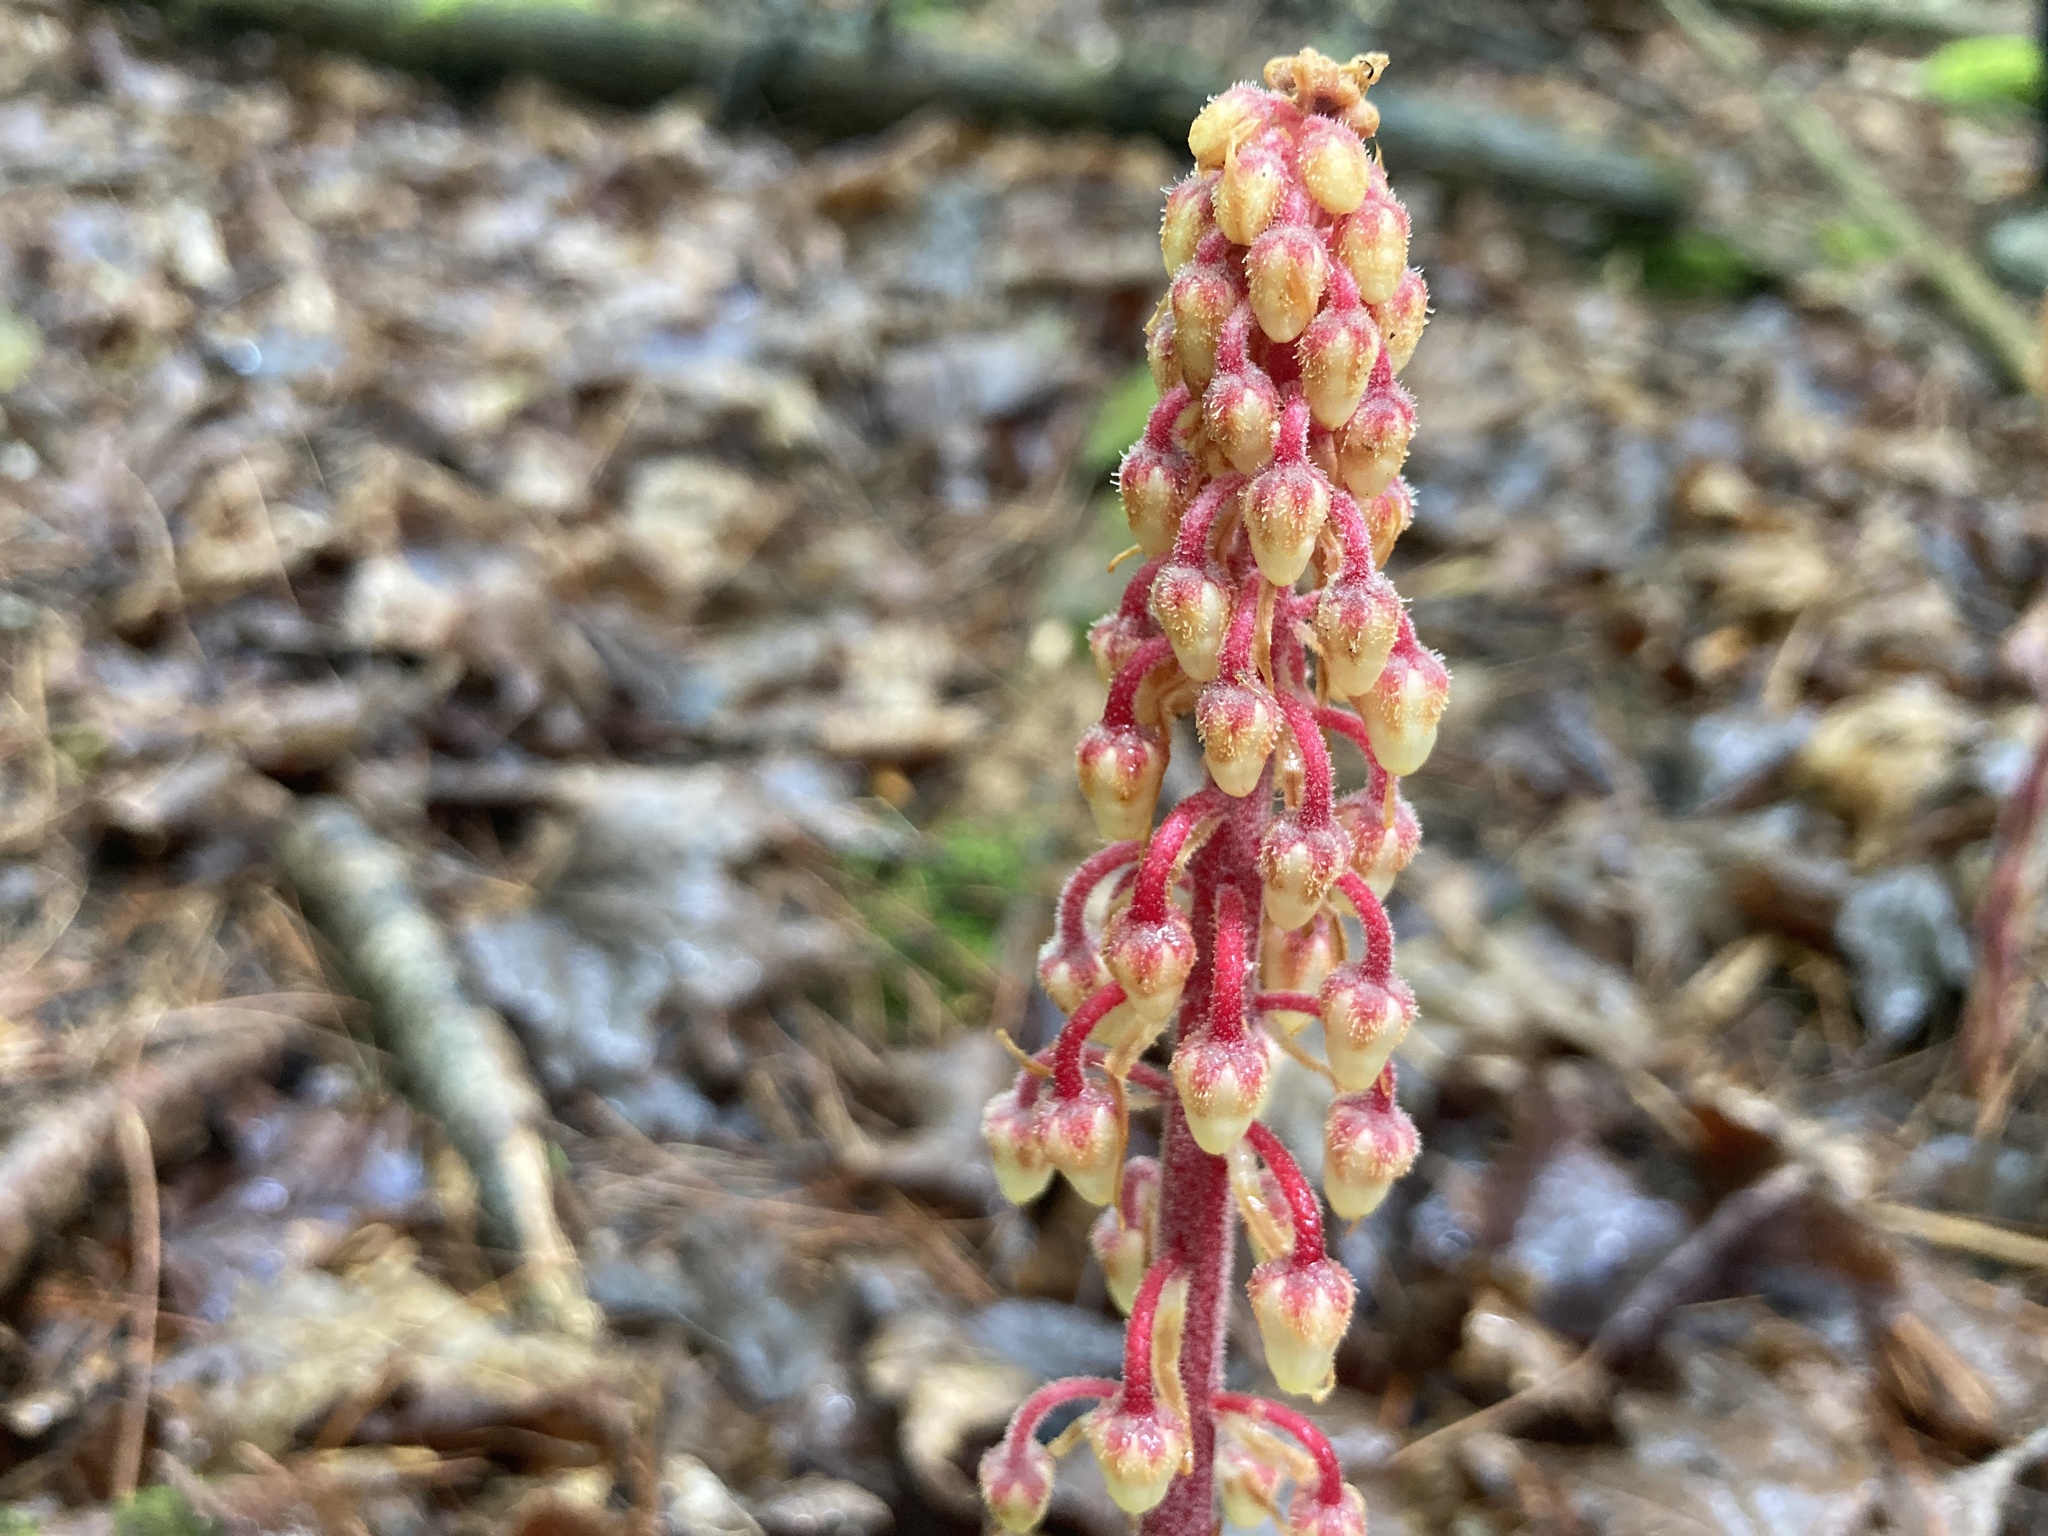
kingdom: Plantae
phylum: Tracheophyta
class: Magnoliopsida
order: Ericales
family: Ericaceae
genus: Pterospora
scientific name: Pterospora andromedea
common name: Giant bird's-nest
